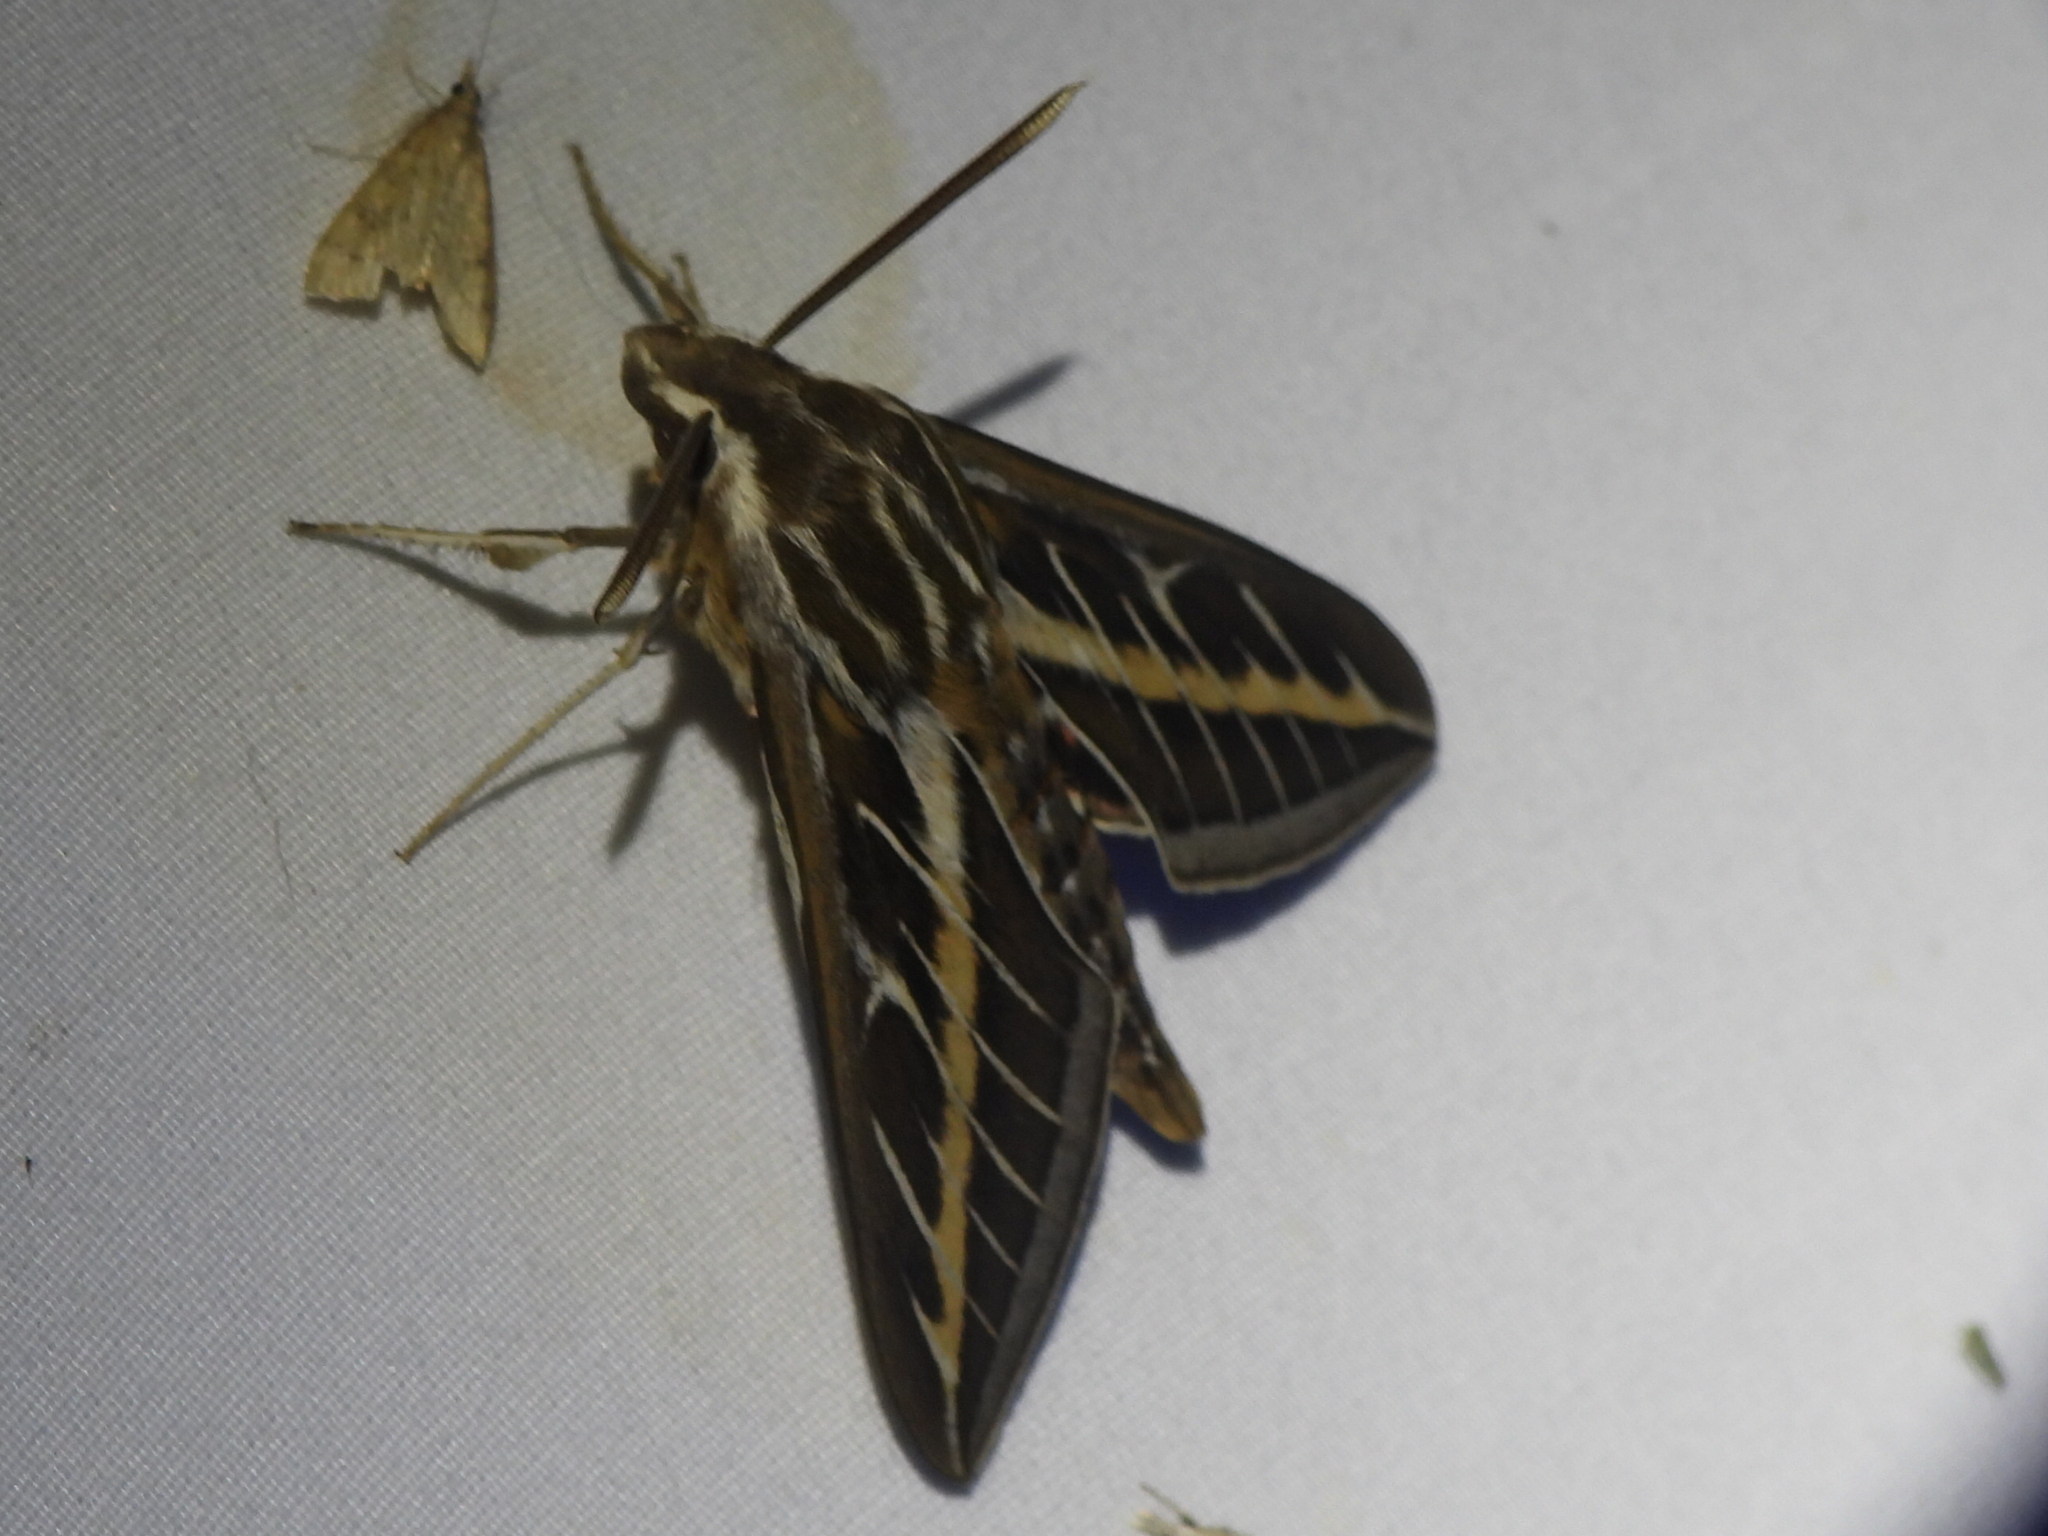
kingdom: Animalia
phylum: Arthropoda
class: Insecta
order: Lepidoptera
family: Sphingidae
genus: Hyles
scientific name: Hyles lineata
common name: White-lined sphinx
